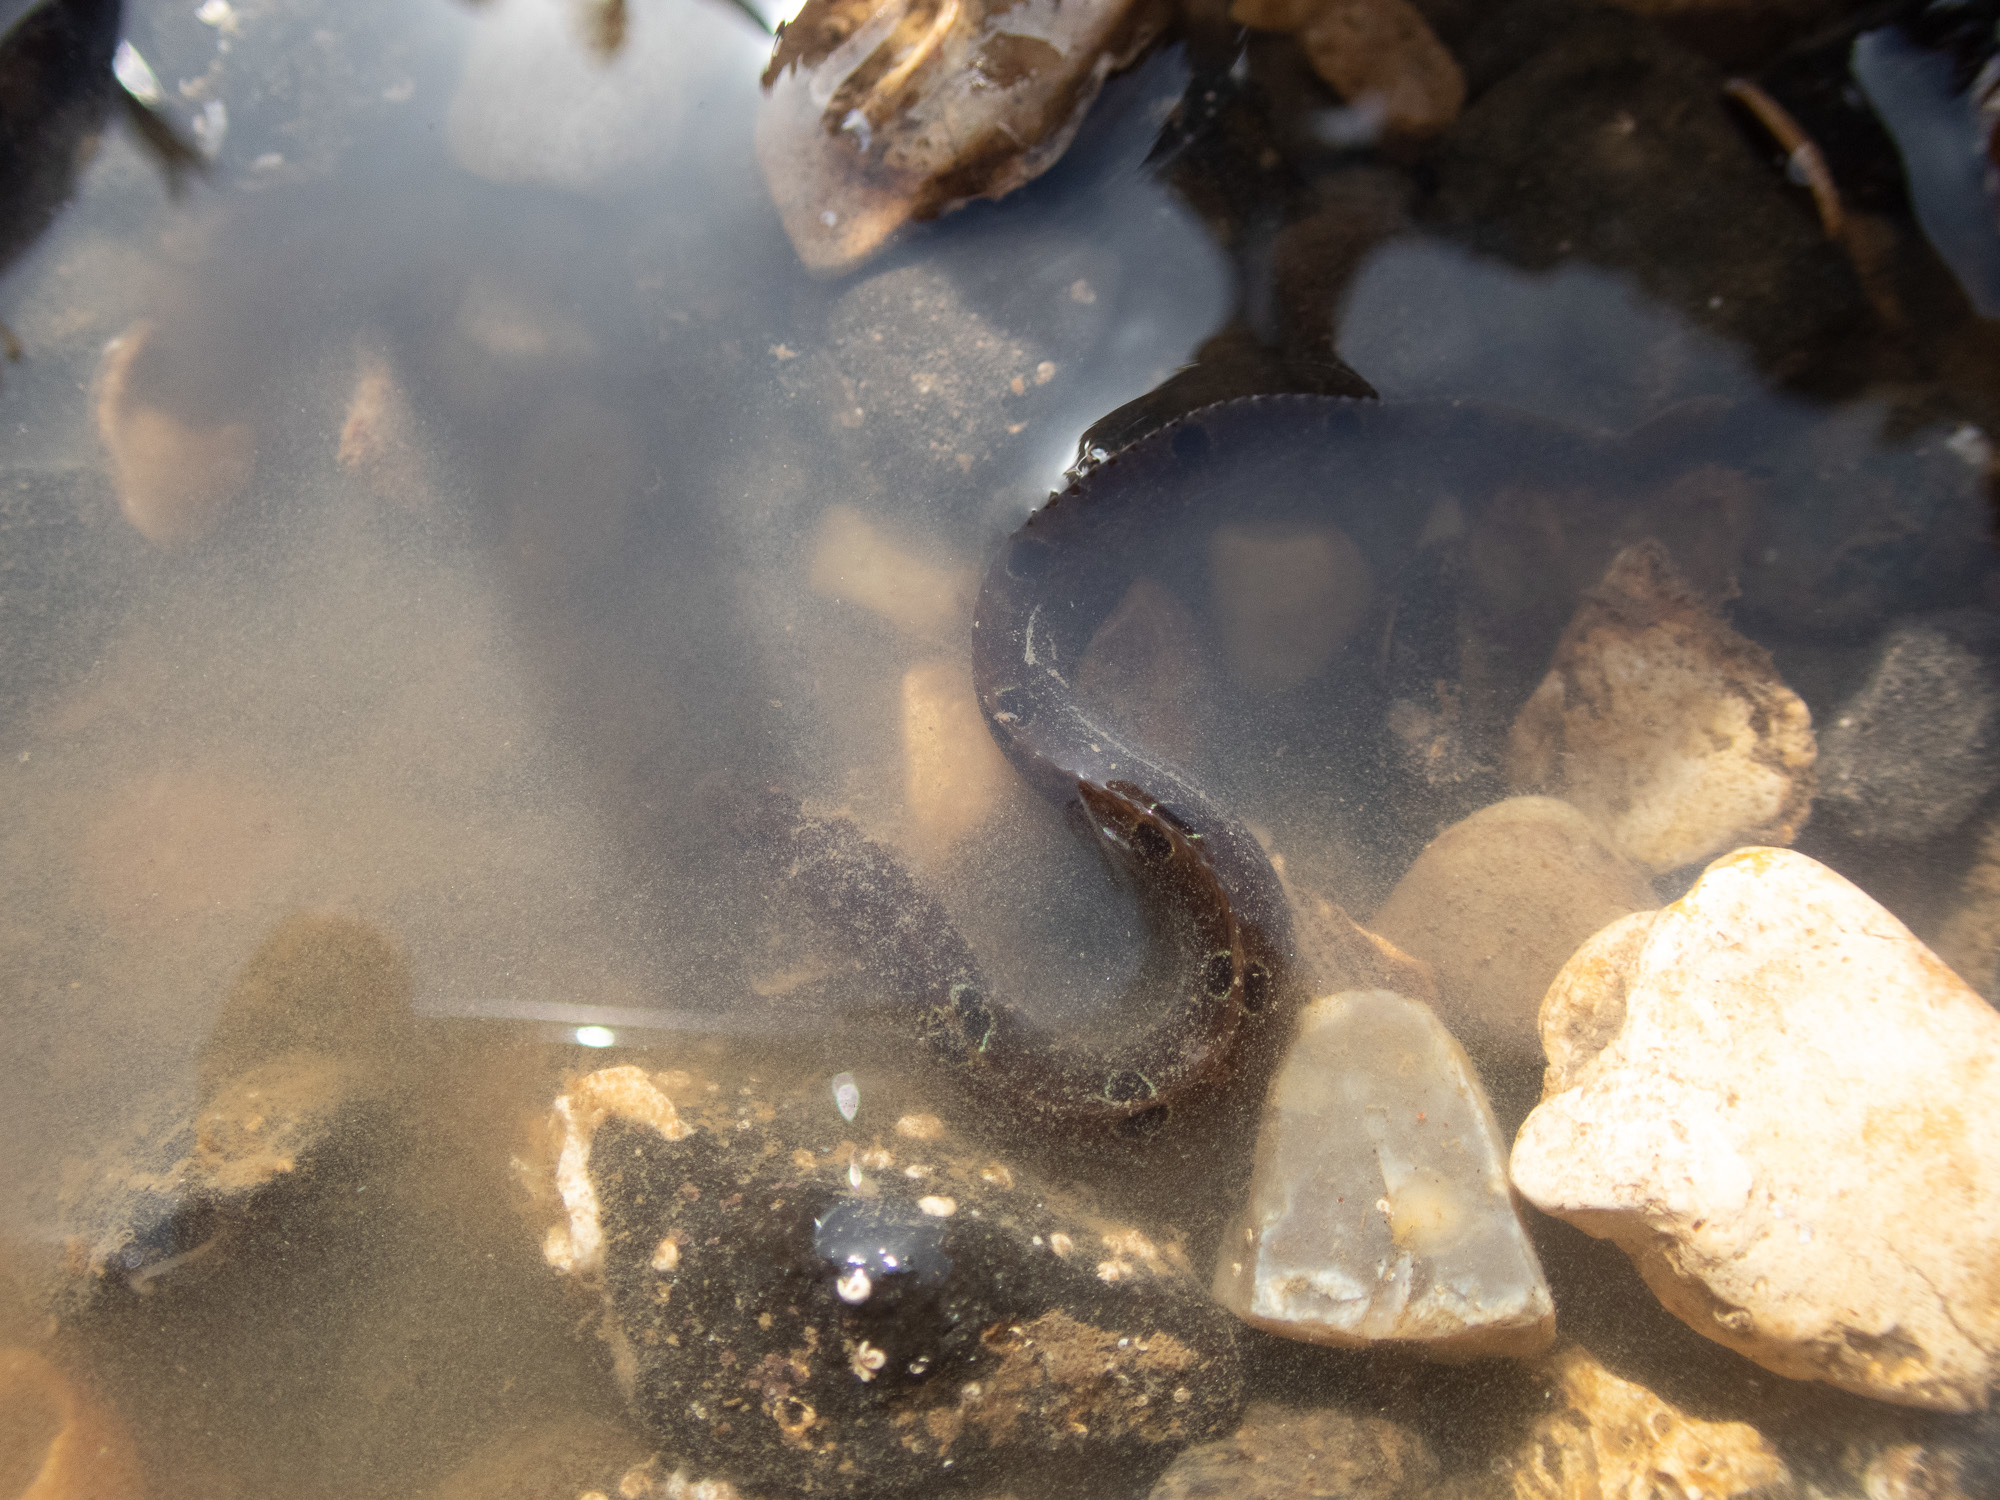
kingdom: Animalia
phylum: Chordata
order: Perciformes
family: Pholidae
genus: Pholis
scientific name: Pholis gunnellus
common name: Butterfish
